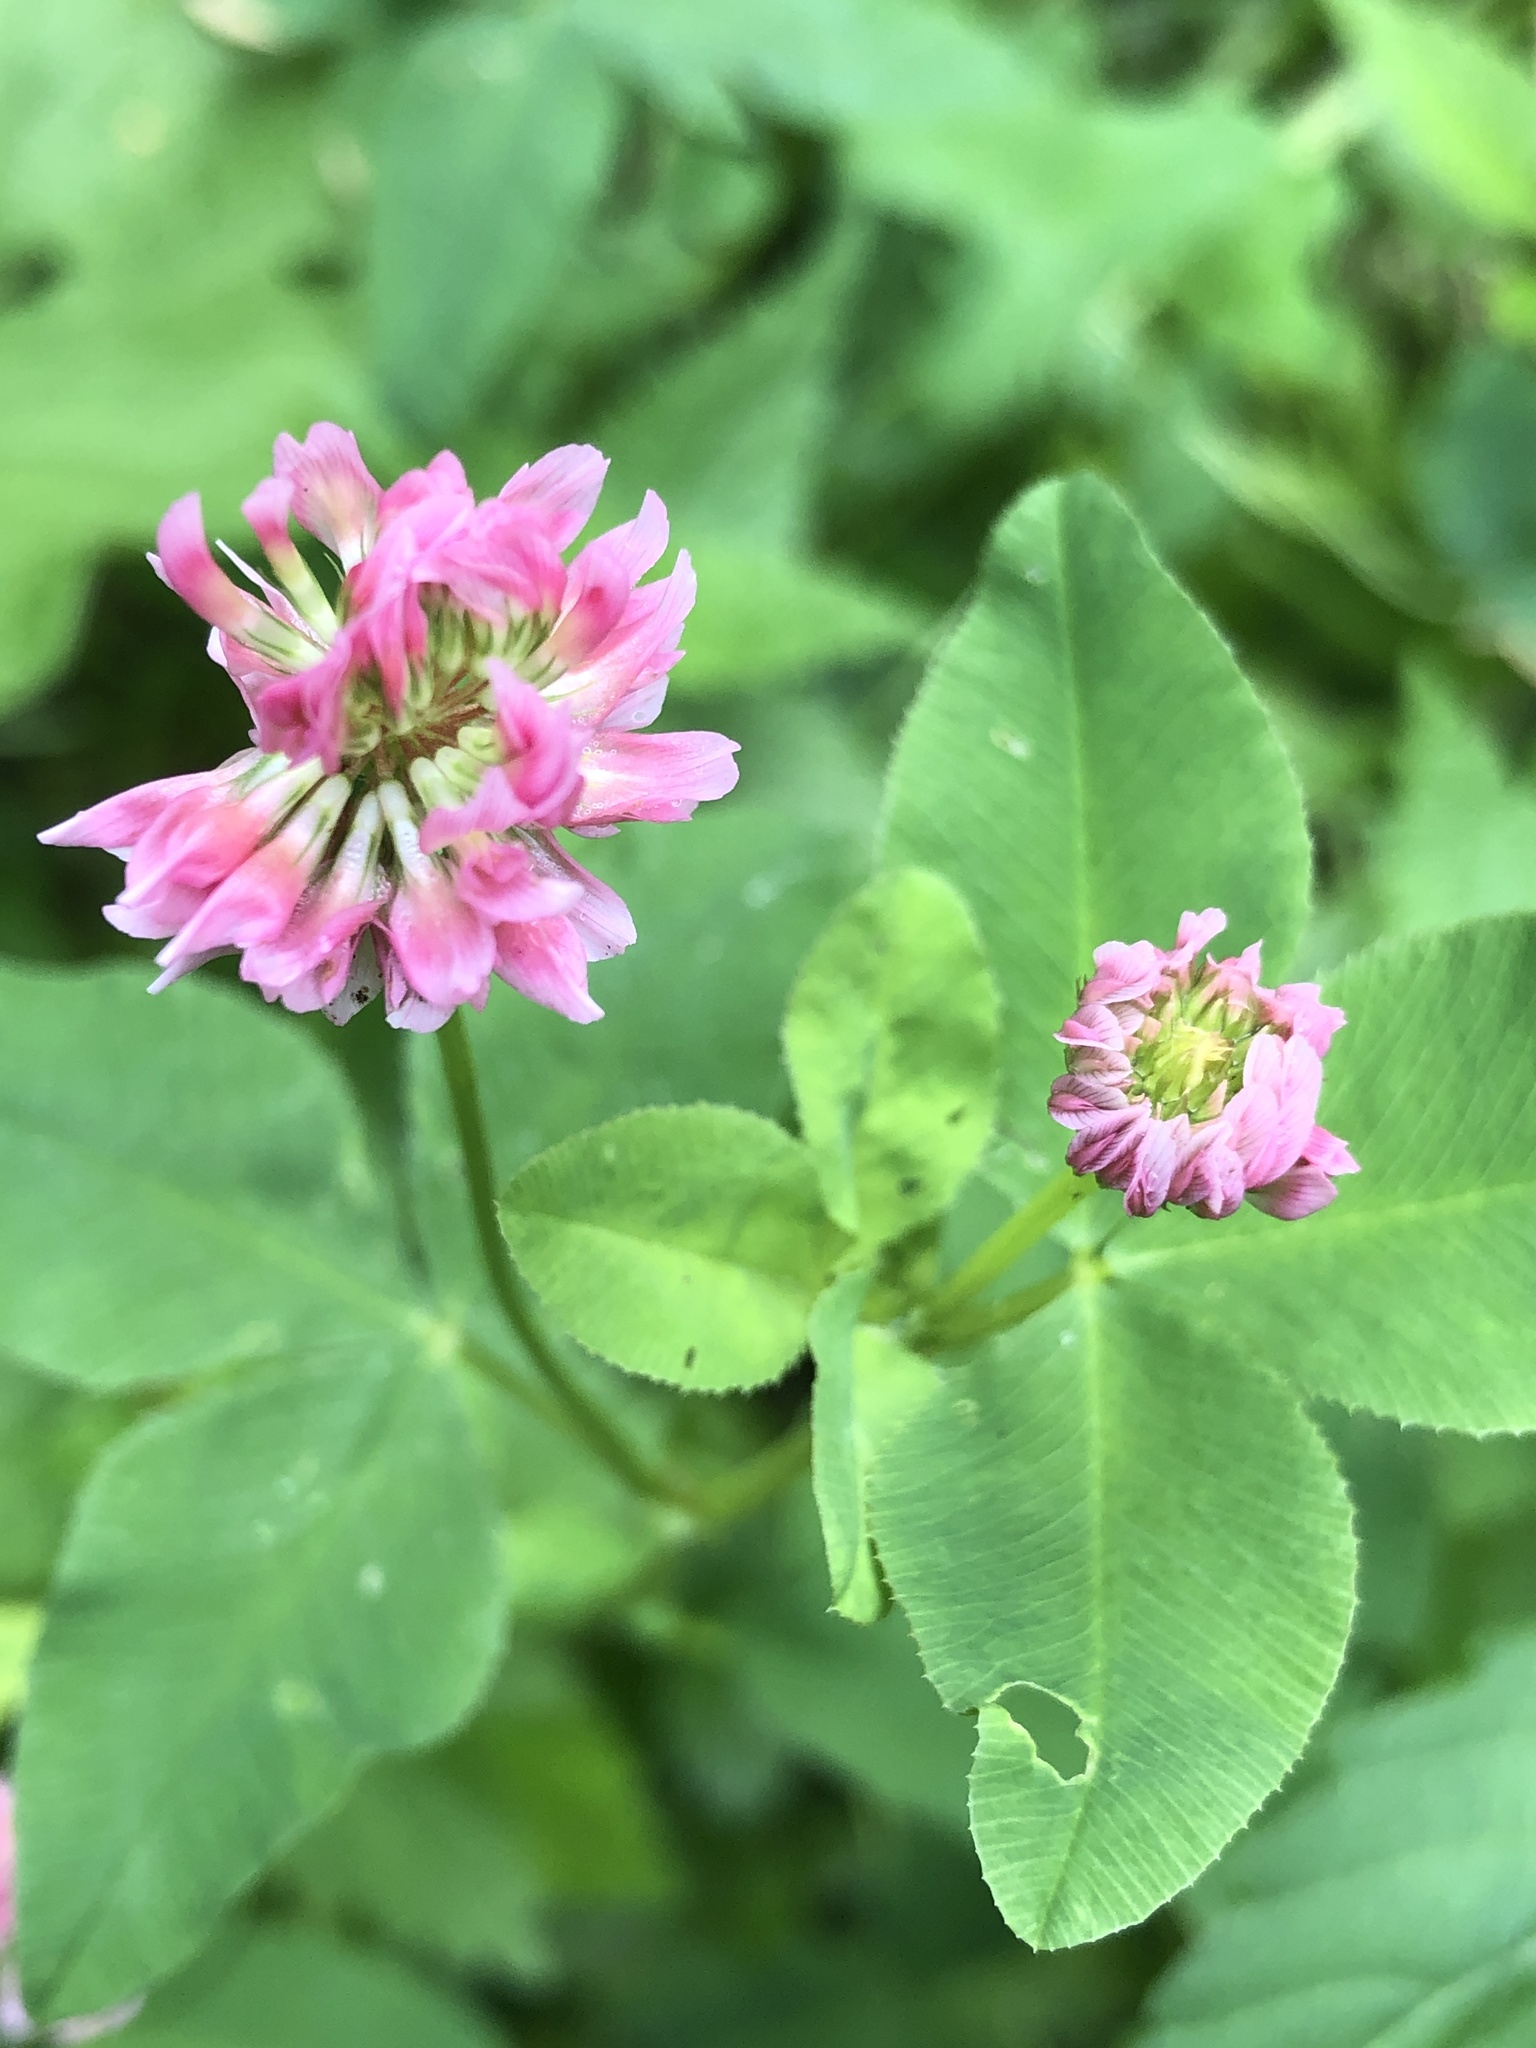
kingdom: Plantae
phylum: Tracheophyta
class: Magnoliopsida
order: Fabales
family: Fabaceae
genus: Trifolium
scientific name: Trifolium hybridum
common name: Alsike clover
